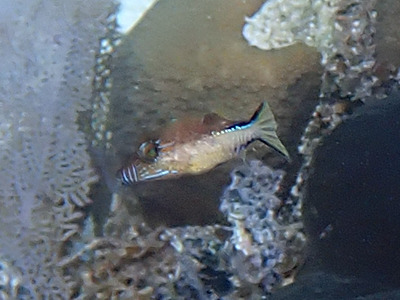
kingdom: Animalia
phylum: Chordata
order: Tetraodontiformes
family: Tetraodontidae
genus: Canthigaster
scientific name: Canthigaster rostrata
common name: Caribbean sharpnose-puffer
